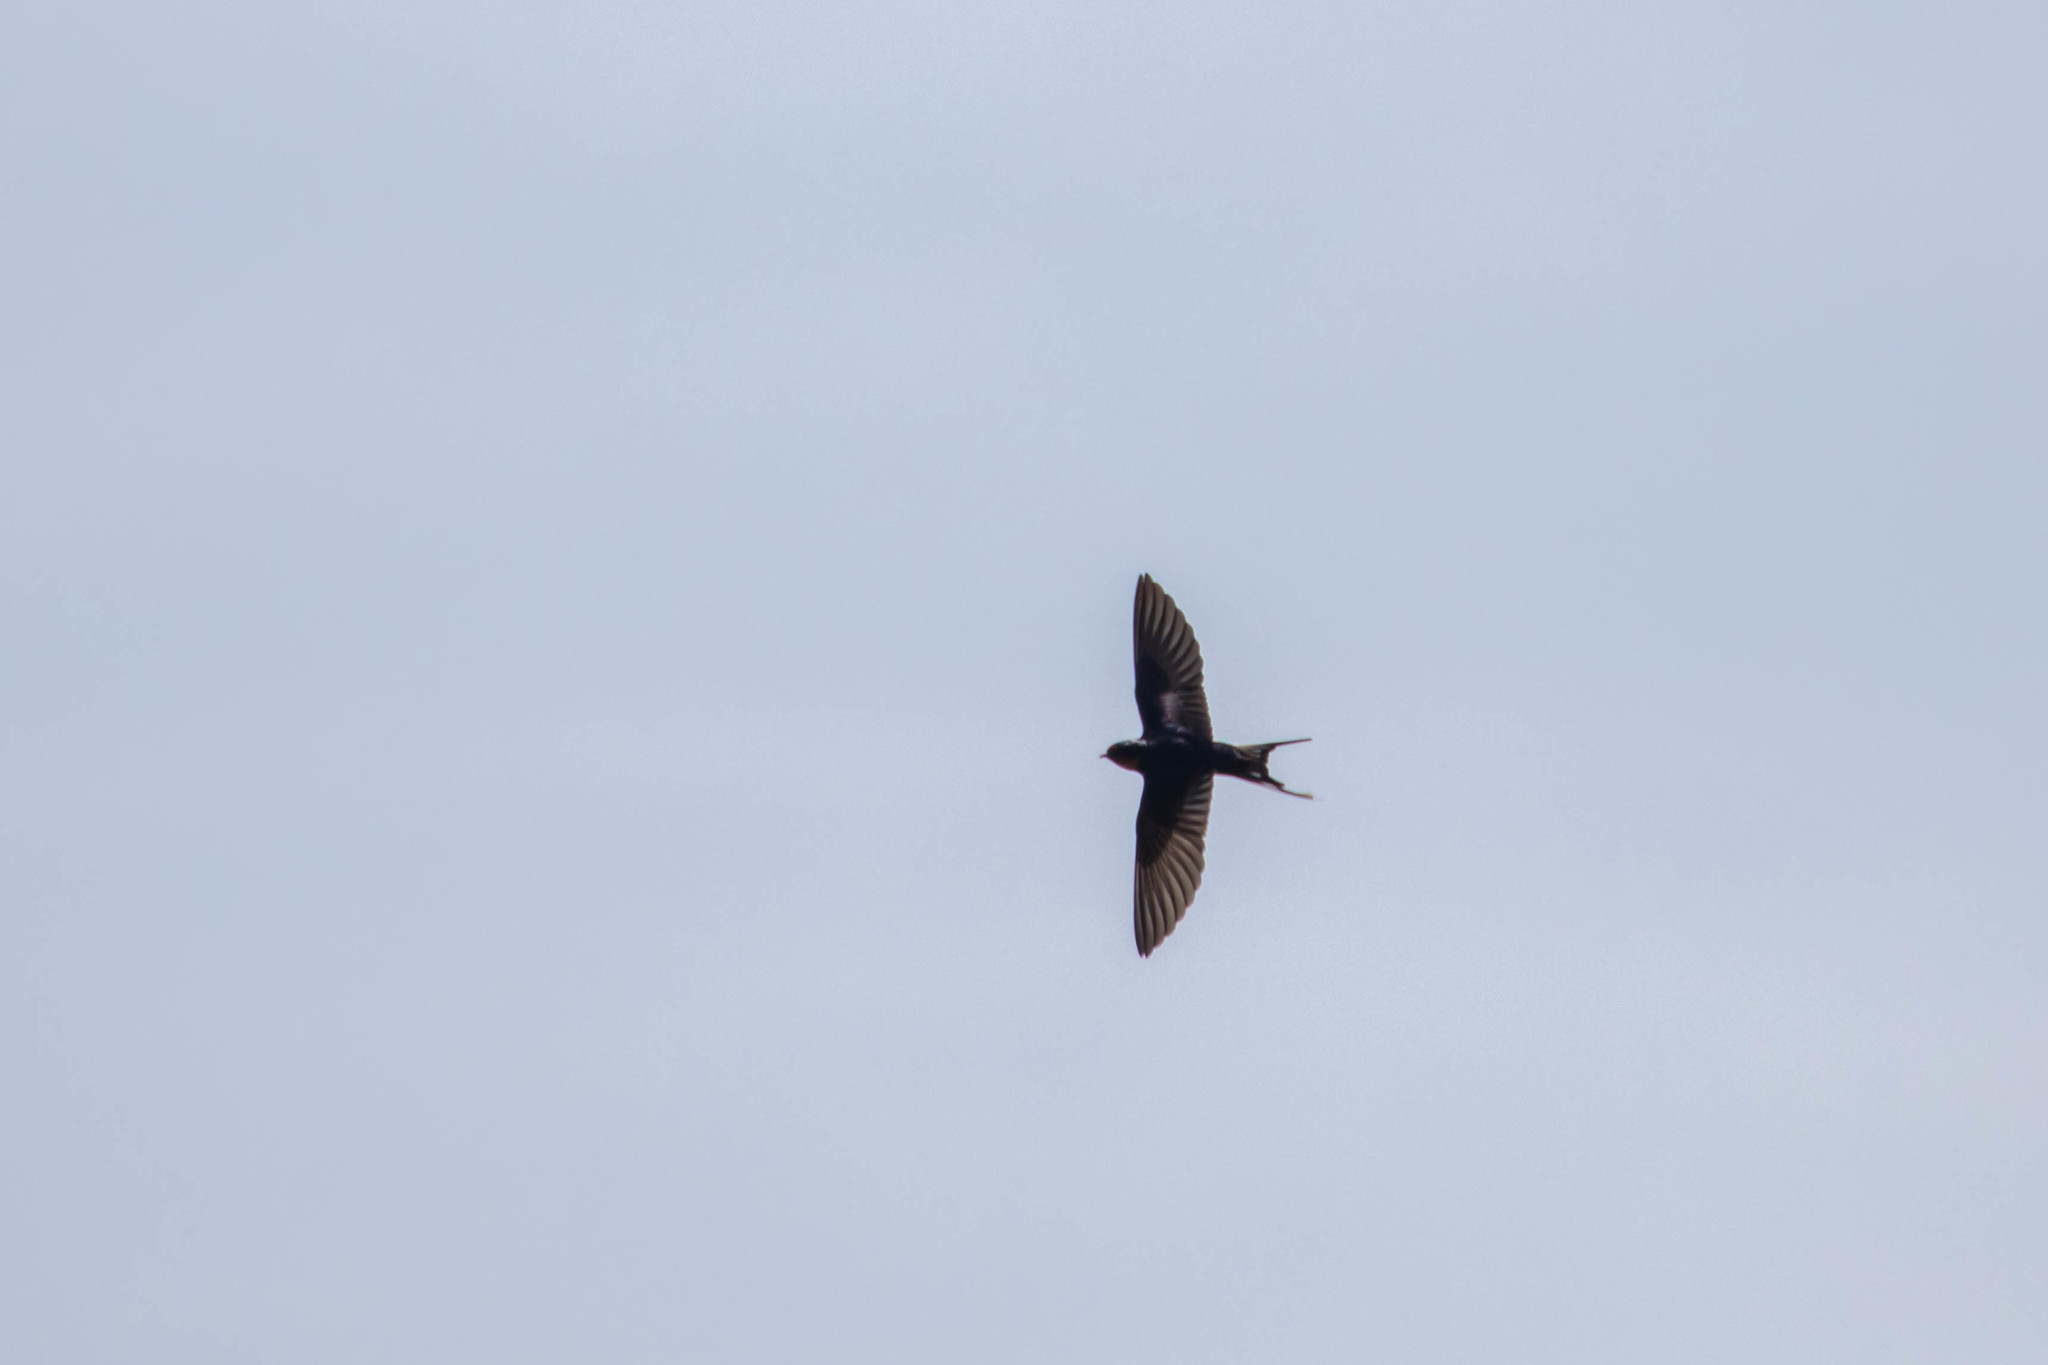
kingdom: Animalia
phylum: Chordata
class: Aves
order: Passeriformes
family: Hirundinidae
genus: Hirundo
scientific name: Hirundo rustica
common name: Barn swallow
